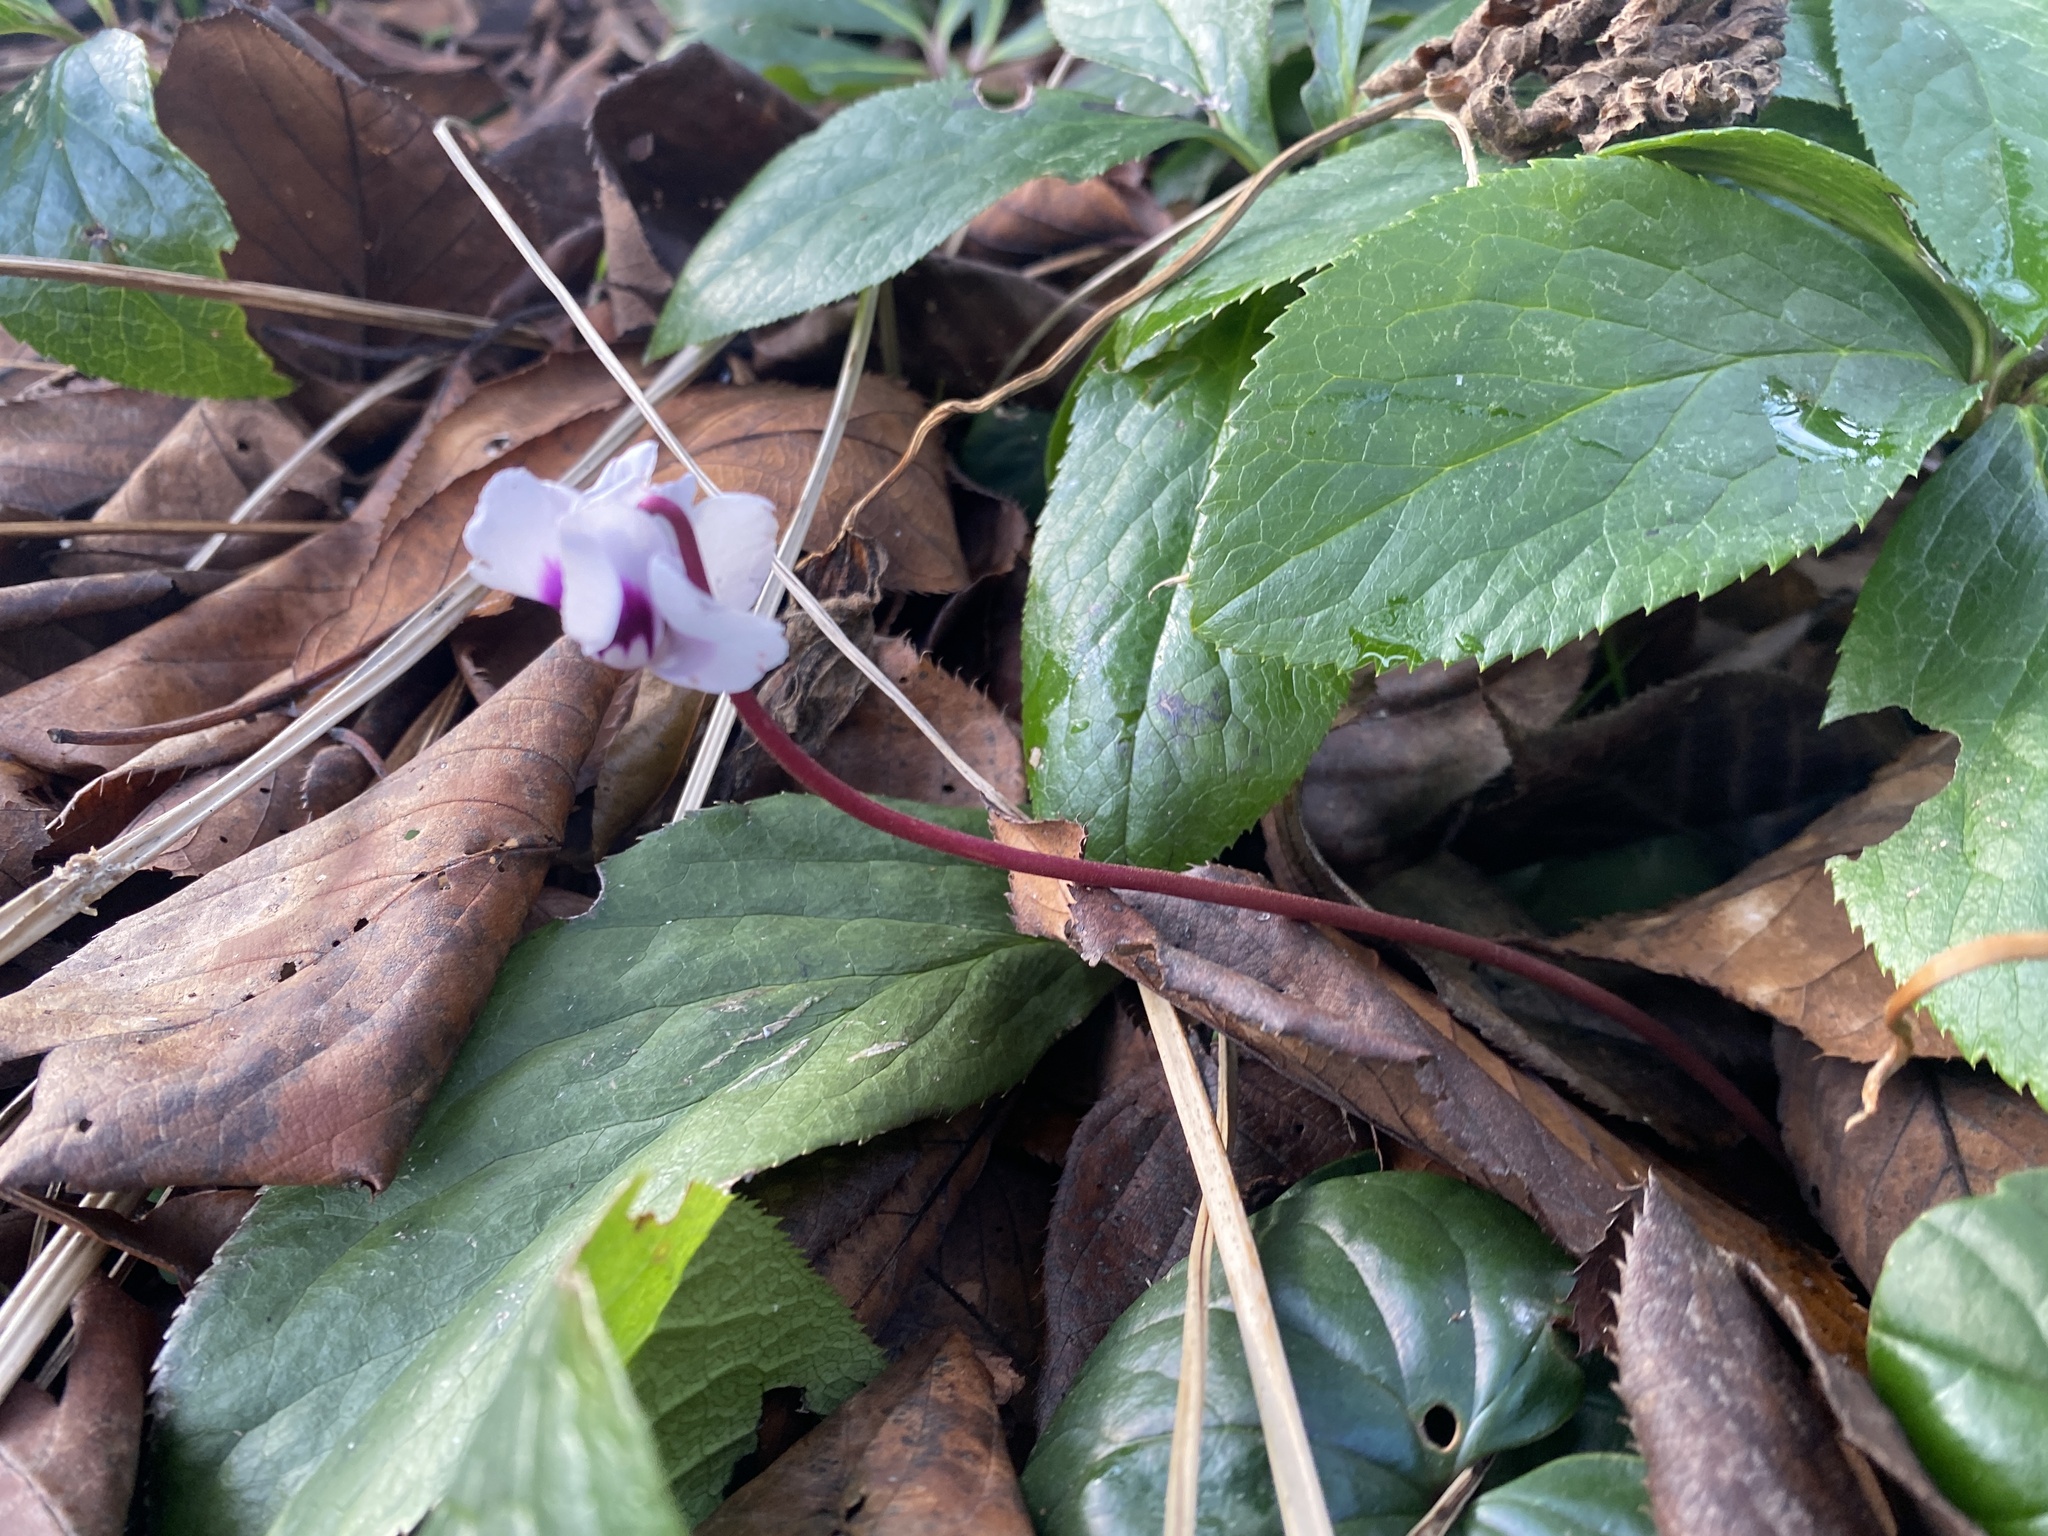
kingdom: Plantae
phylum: Tracheophyta
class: Magnoliopsida
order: Ericales
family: Primulaceae
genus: Cyclamen
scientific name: Cyclamen coum
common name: Eastern sowbread
